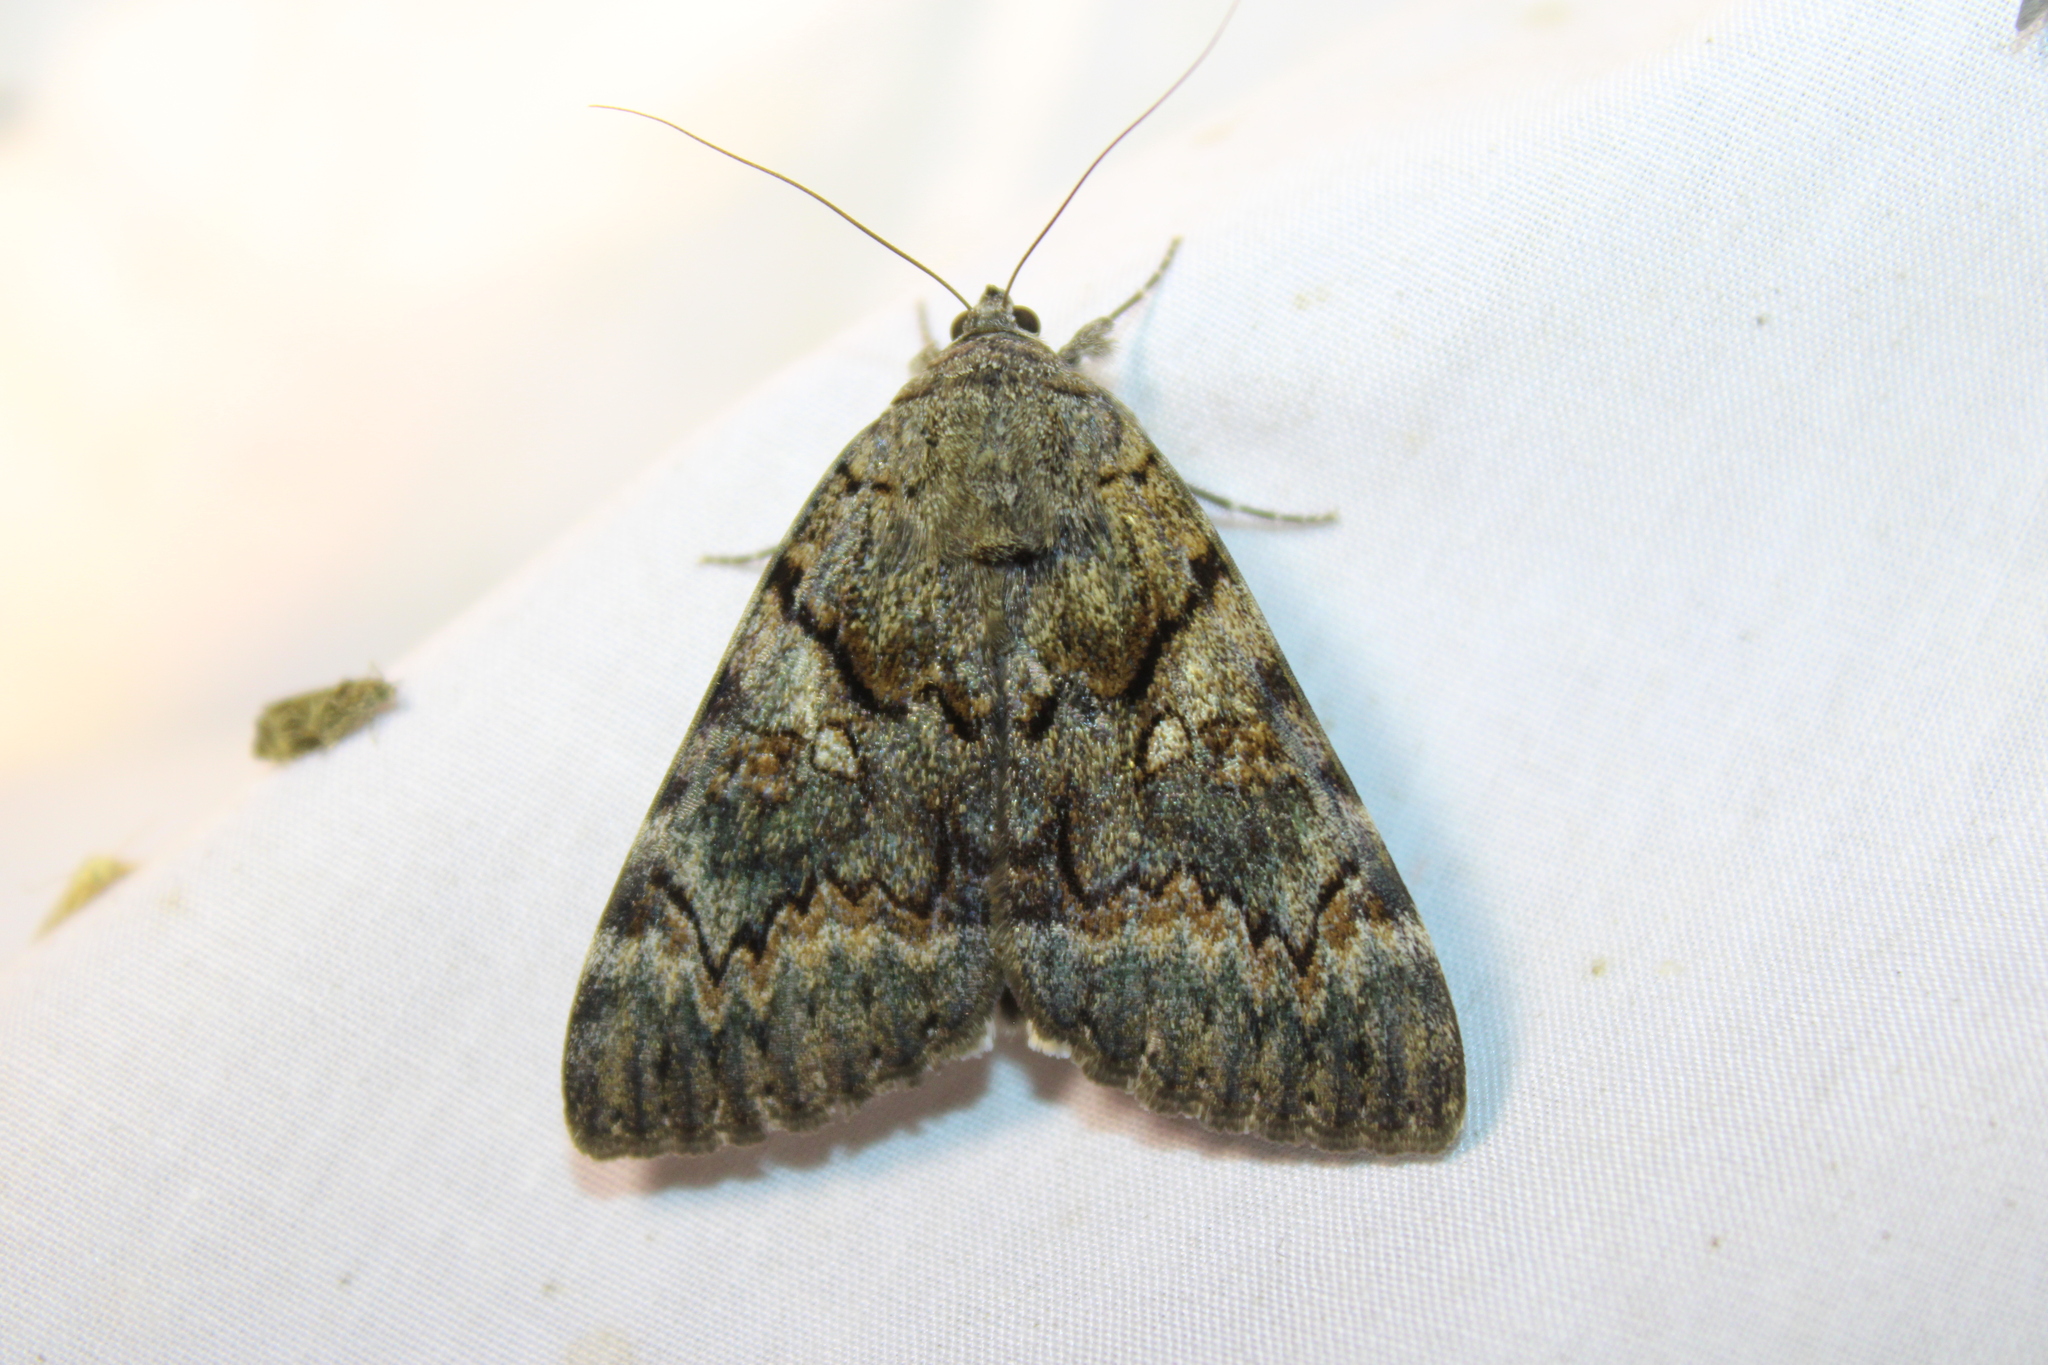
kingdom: Animalia
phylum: Arthropoda
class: Insecta
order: Lepidoptera
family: Erebidae
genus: Catocala
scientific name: Catocala epione
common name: Epione underwing
